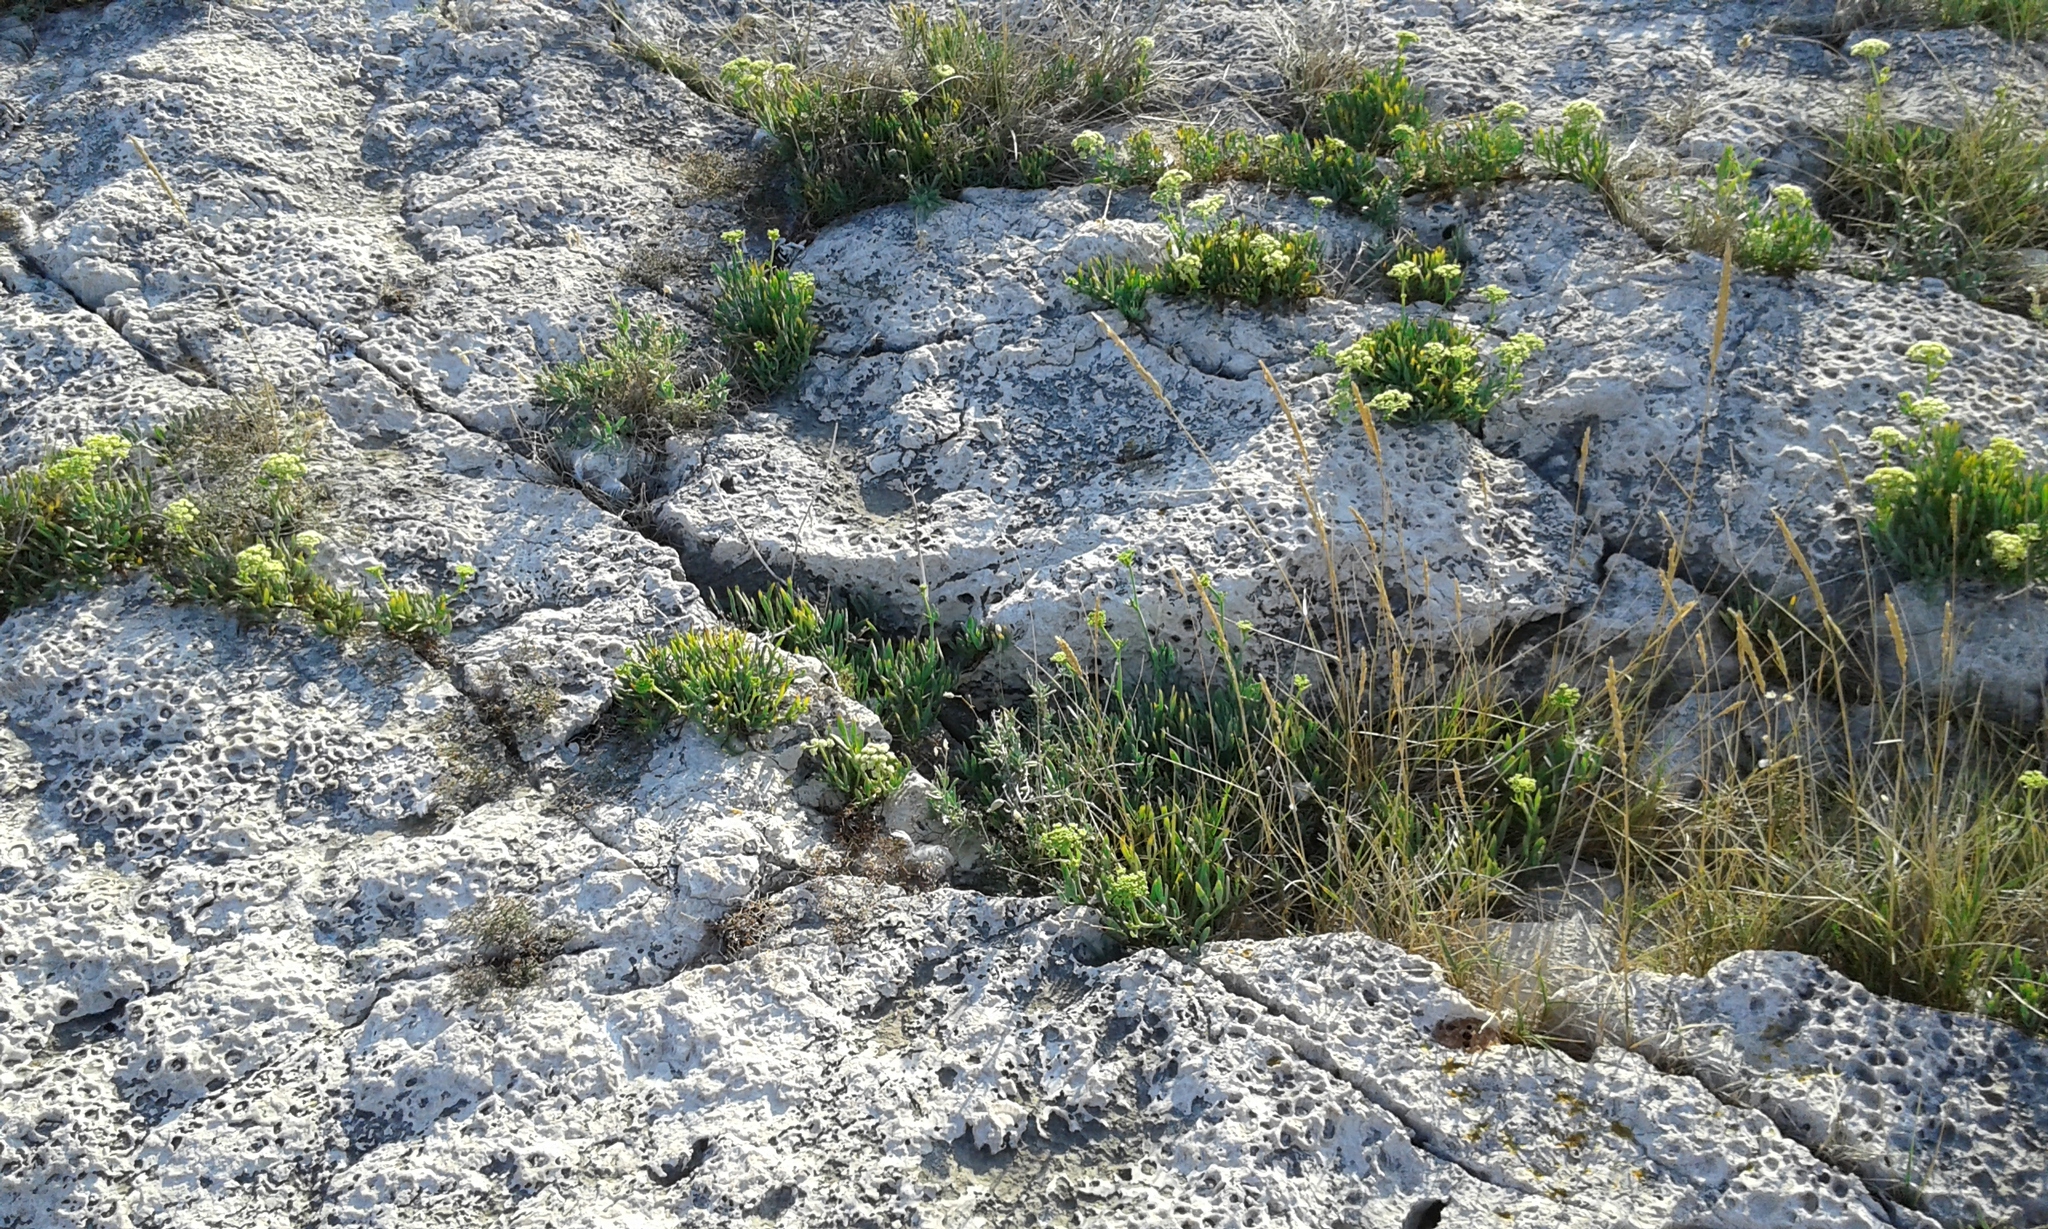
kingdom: Plantae
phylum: Tracheophyta
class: Magnoliopsida
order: Apiales
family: Apiaceae
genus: Crithmum
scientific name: Crithmum maritimum
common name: Rock samphire
